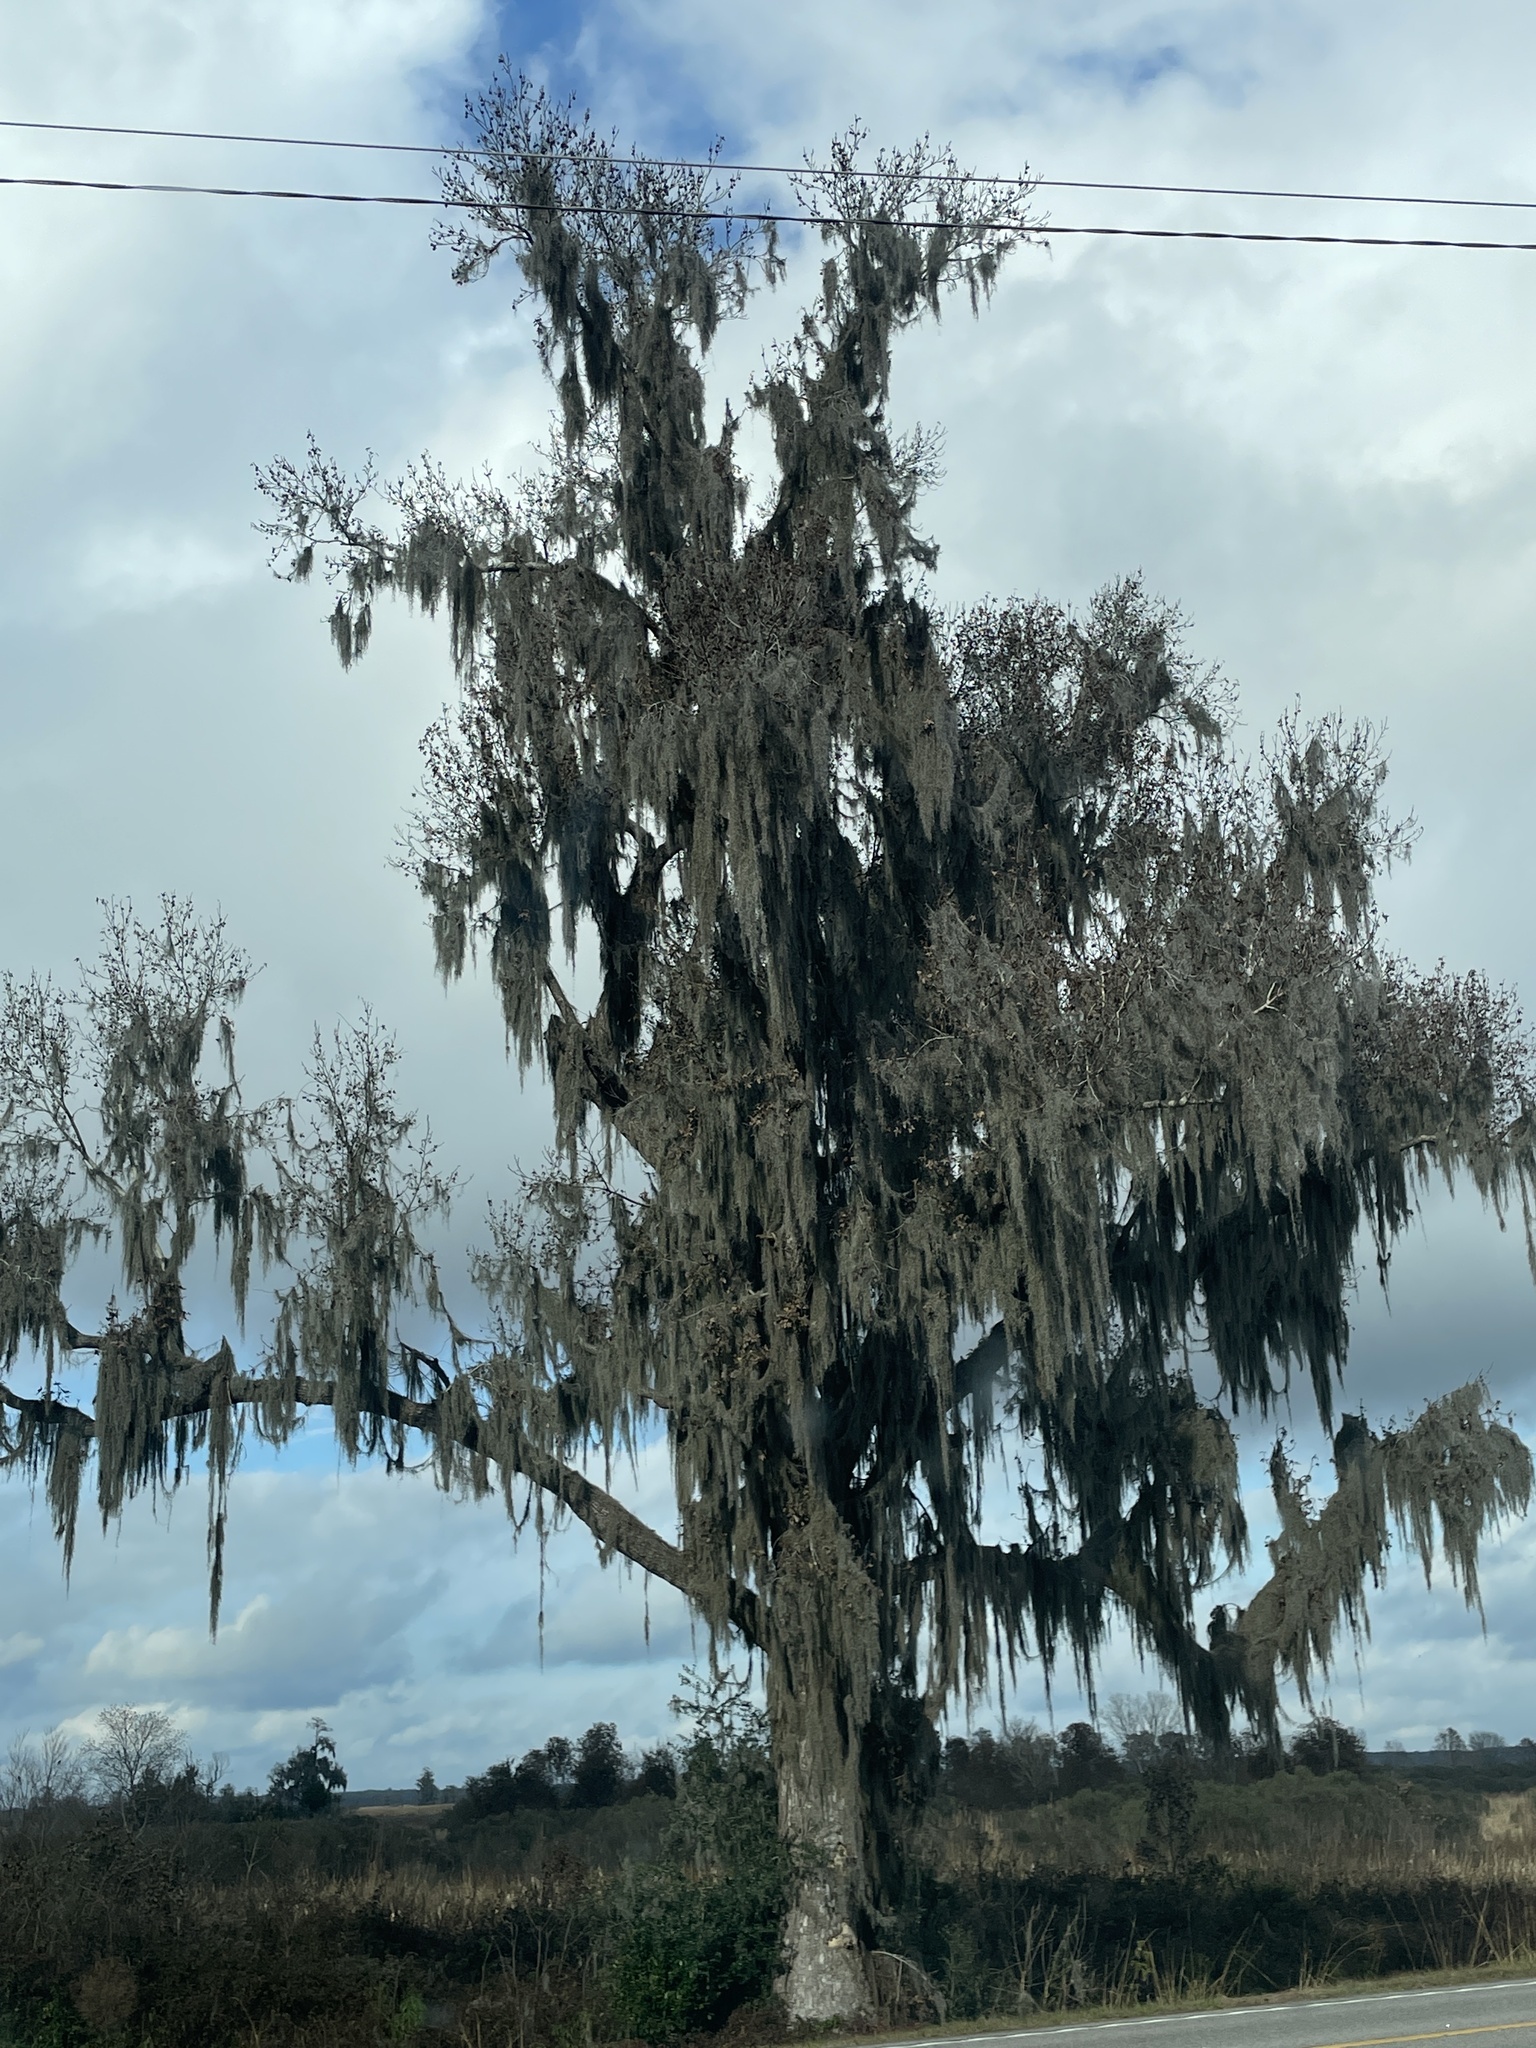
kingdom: Plantae
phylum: Tracheophyta
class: Liliopsida
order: Poales
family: Bromeliaceae
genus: Tillandsia
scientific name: Tillandsia usneoides
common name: Spanish moss
